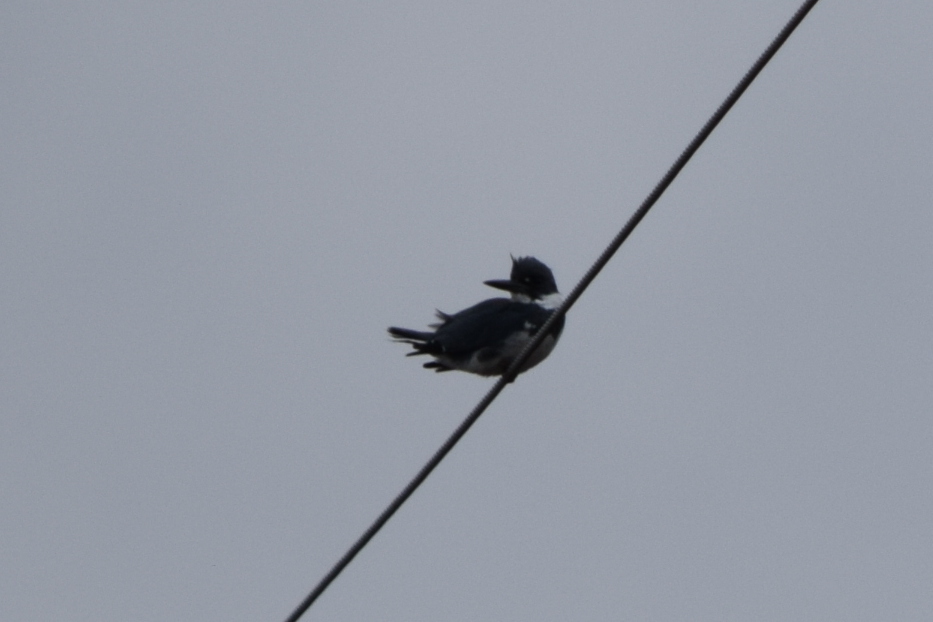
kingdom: Animalia
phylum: Chordata
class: Aves
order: Coraciiformes
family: Alcedinidae
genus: Megaceryle
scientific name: Megaceryle alcyon
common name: Belted kingfisher
